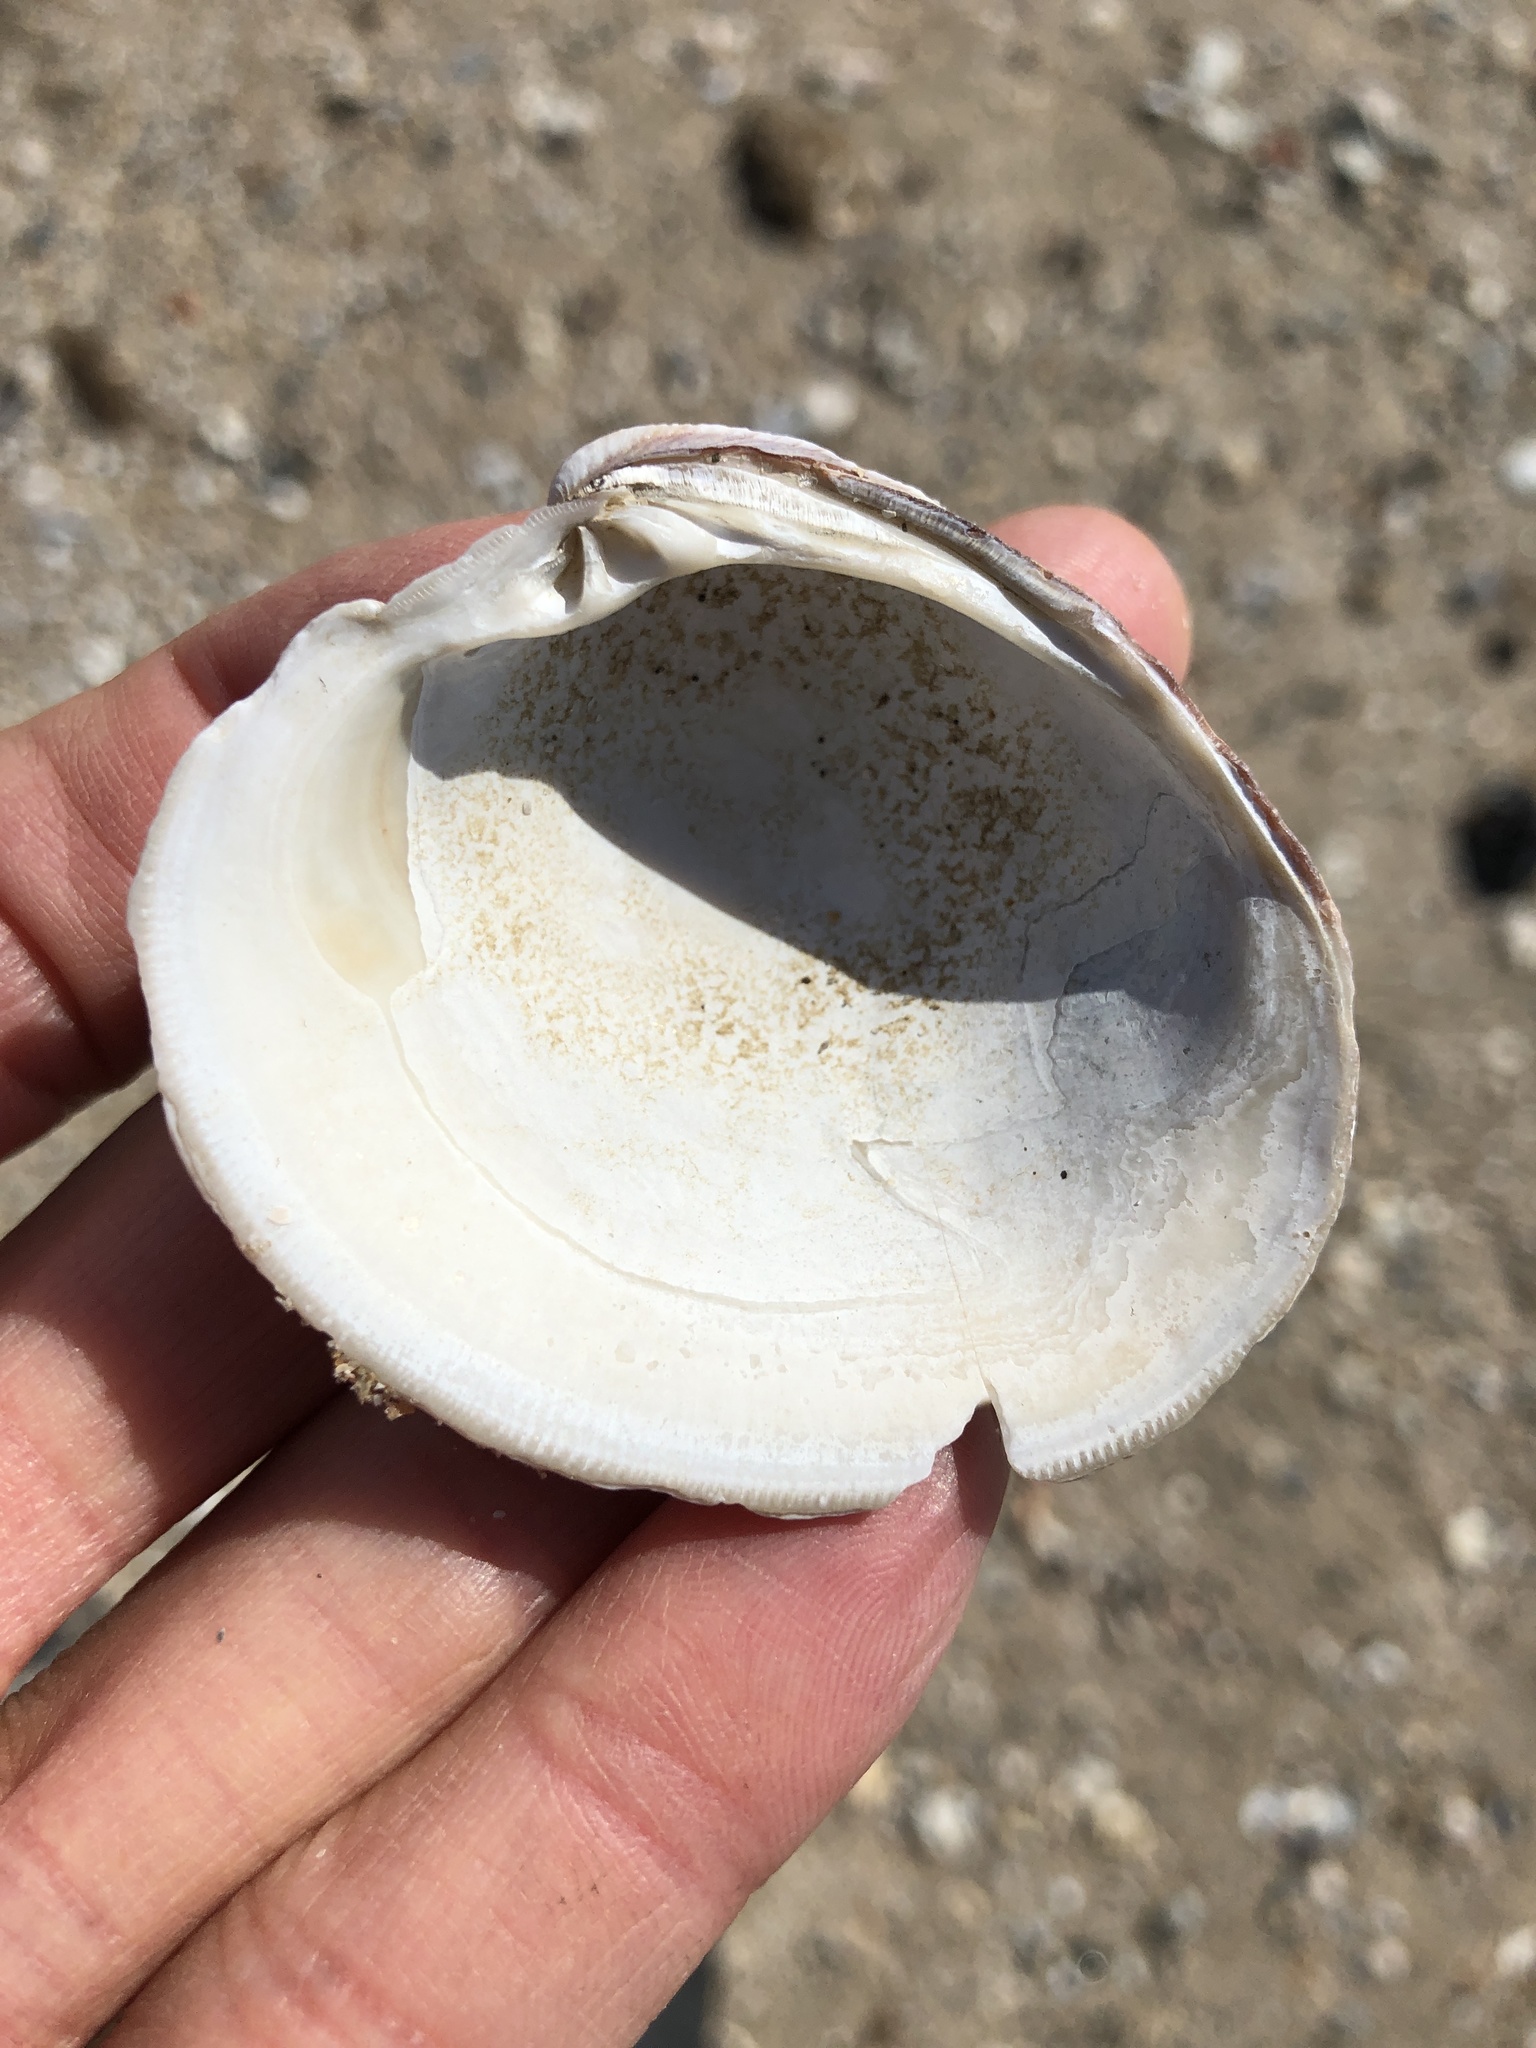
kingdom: Animalia
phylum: Mollusca
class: Bivalvia
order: Venerida
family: Veneridae
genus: Mercenaria
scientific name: Mercenaria campechiensis
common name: Südliche quahog-muschel
